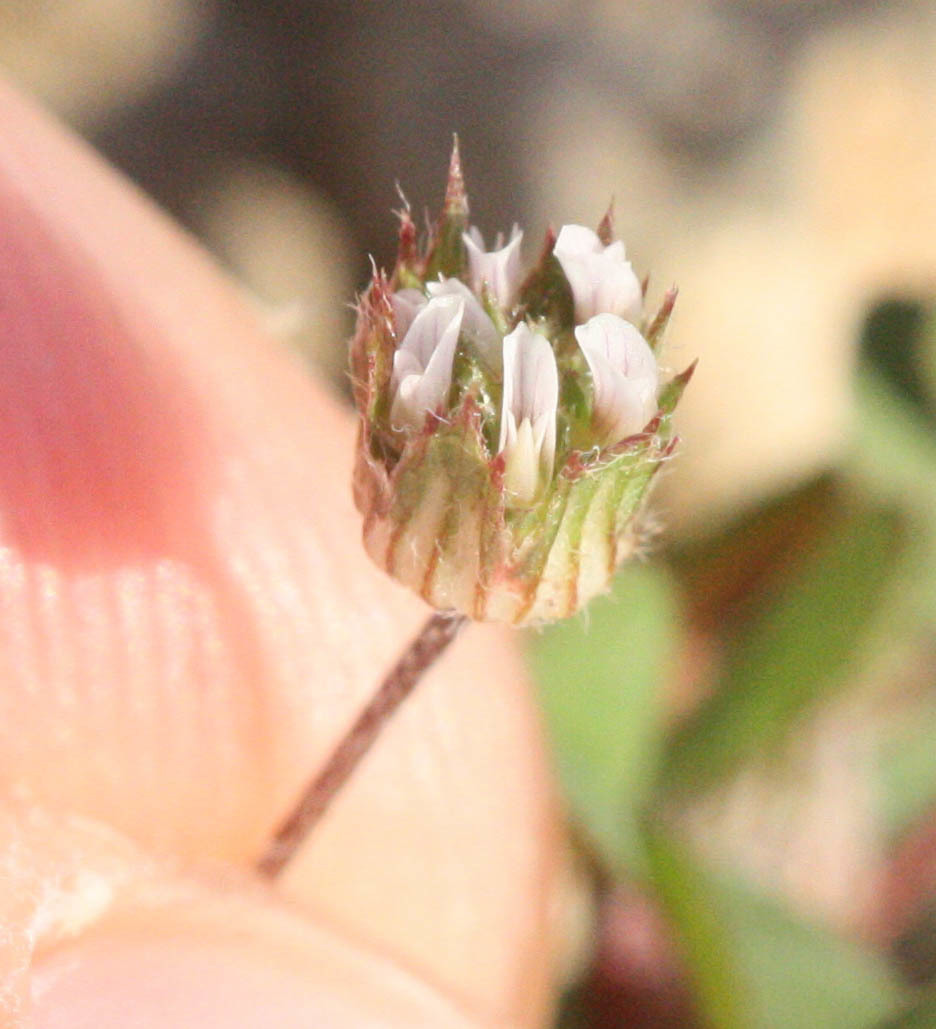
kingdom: Plantae
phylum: Tracheophyta
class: Magnoliopsida
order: Fabales
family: Fabaceae
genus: Trifolium
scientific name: Trifolium microdon
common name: Thimble clover
